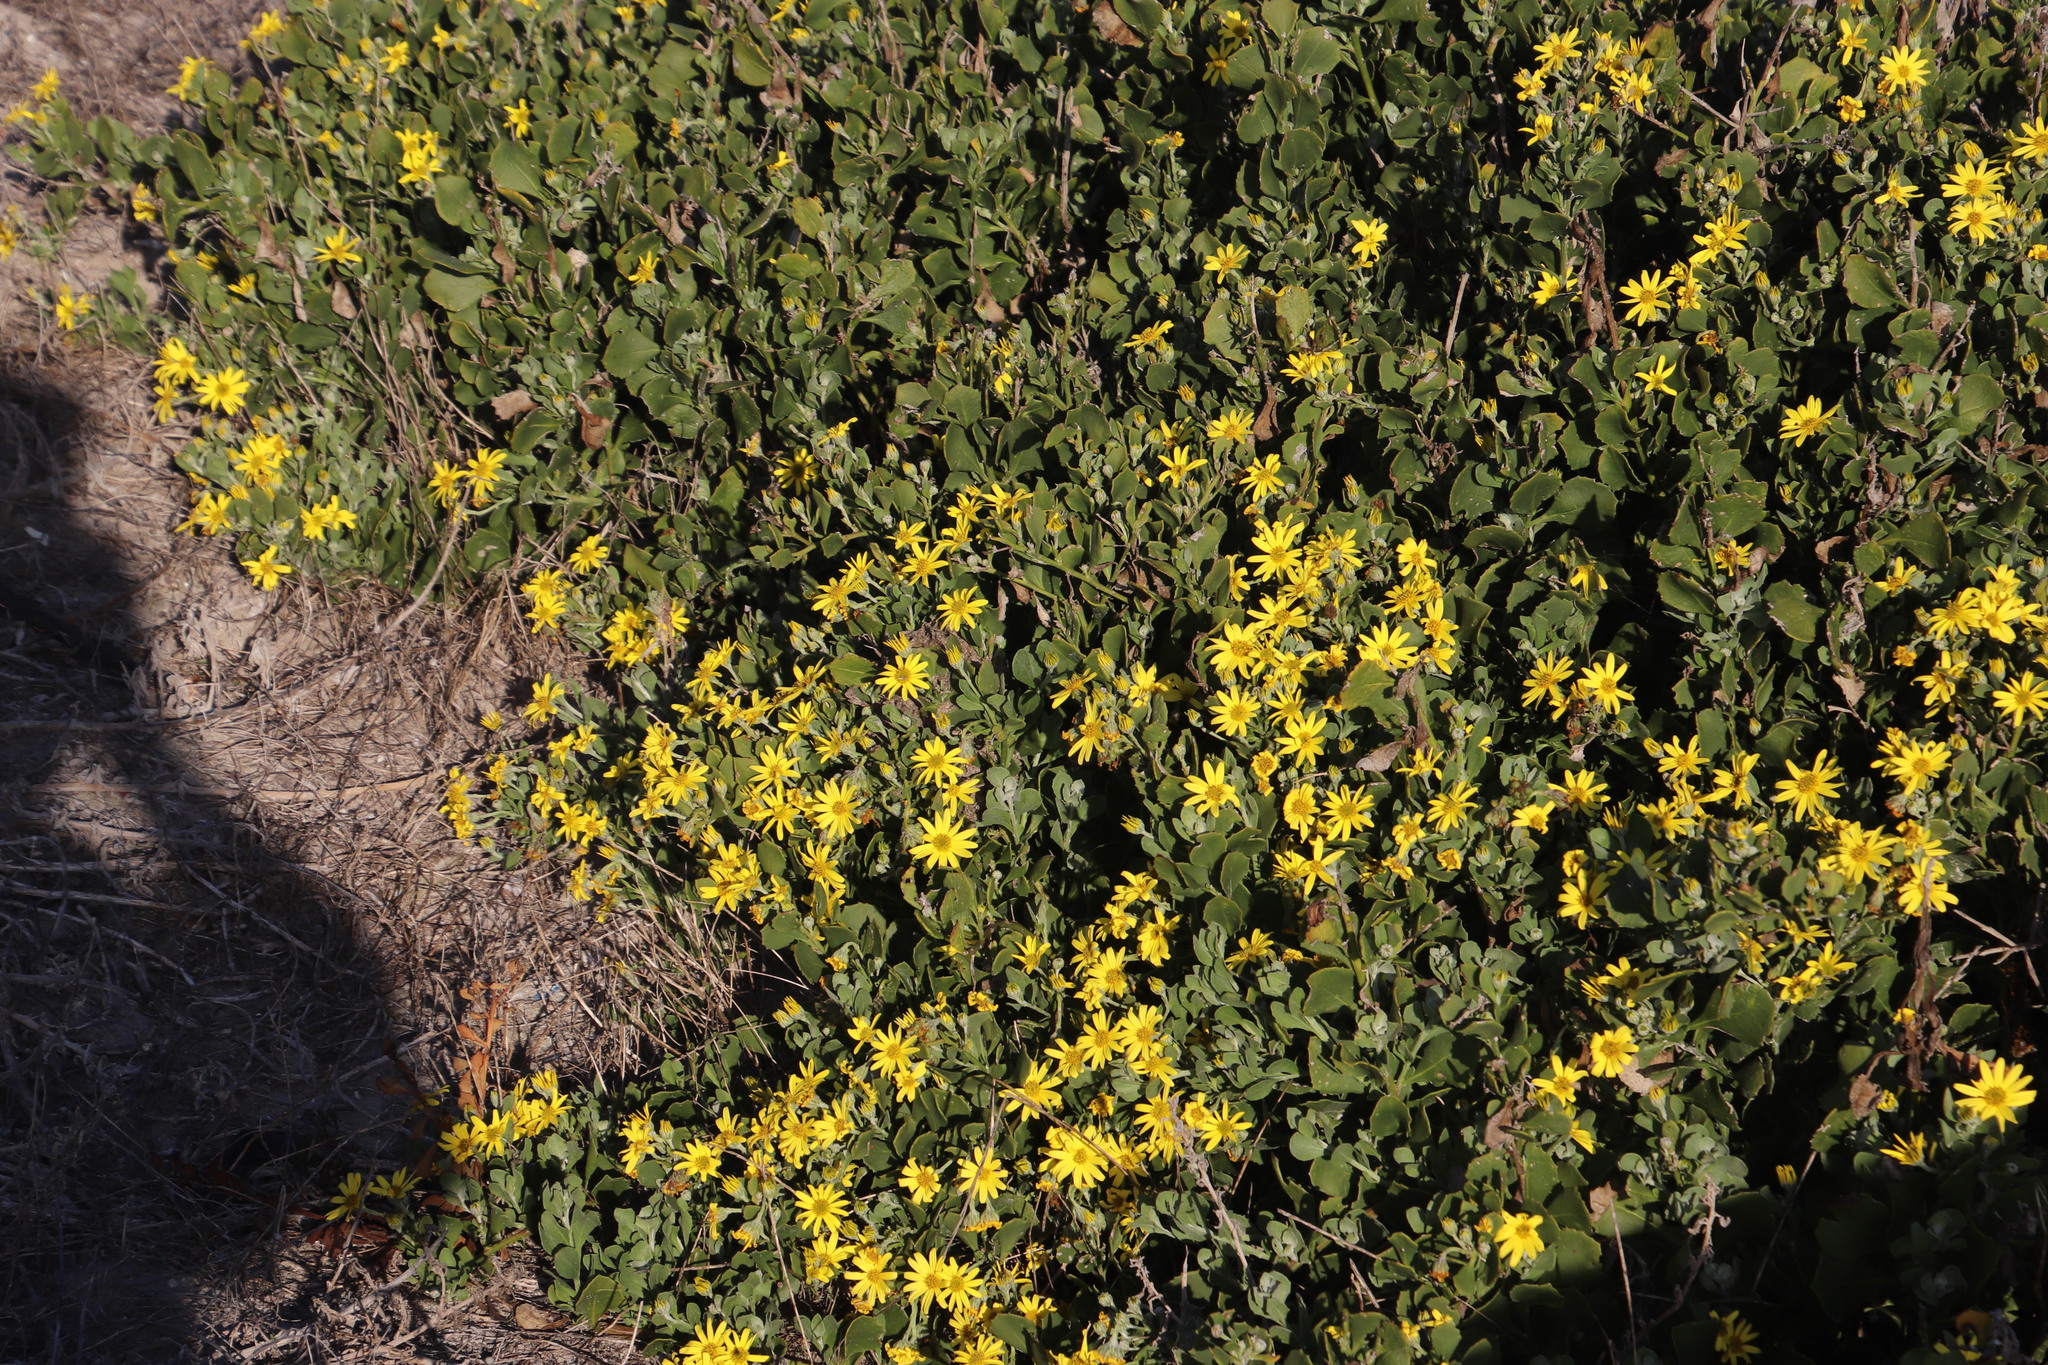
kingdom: Plantae
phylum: Tracheophyta
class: Magnoliopsida
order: Asterales
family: Asteraceae
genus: Osteospermum
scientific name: Osteospermum moniliferum
